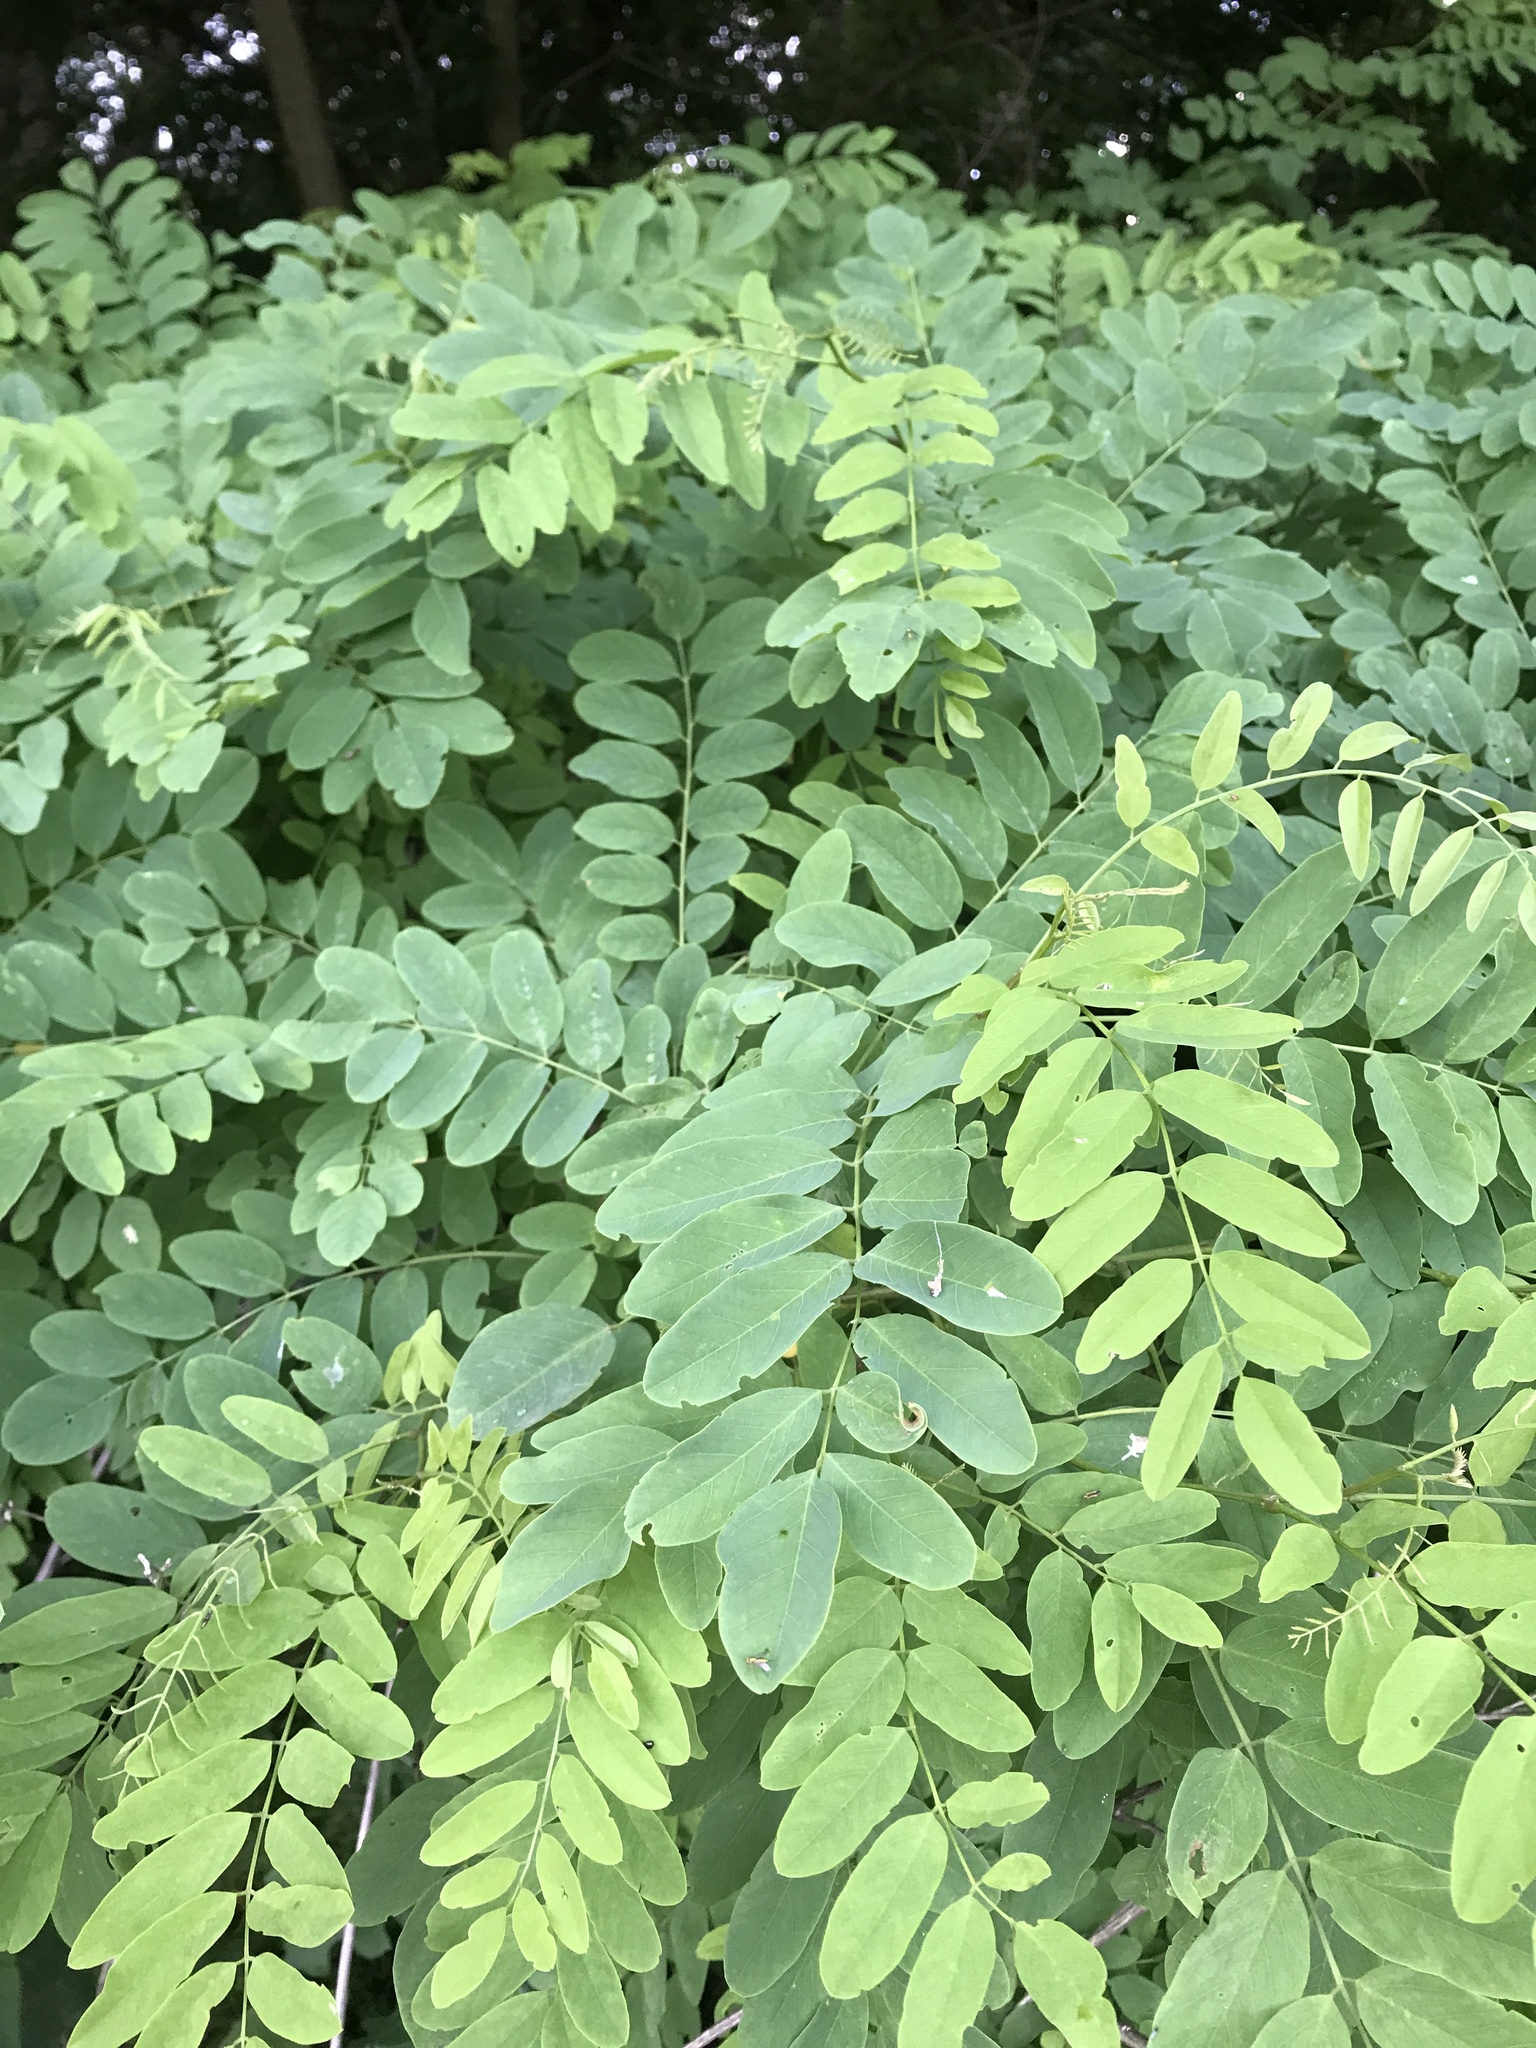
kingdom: Plantae
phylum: Tracheophyta
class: Magnoliopsida
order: Fabales
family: Fabaceae
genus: Robinia
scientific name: Robinia pseudoacacia
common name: Black locust
